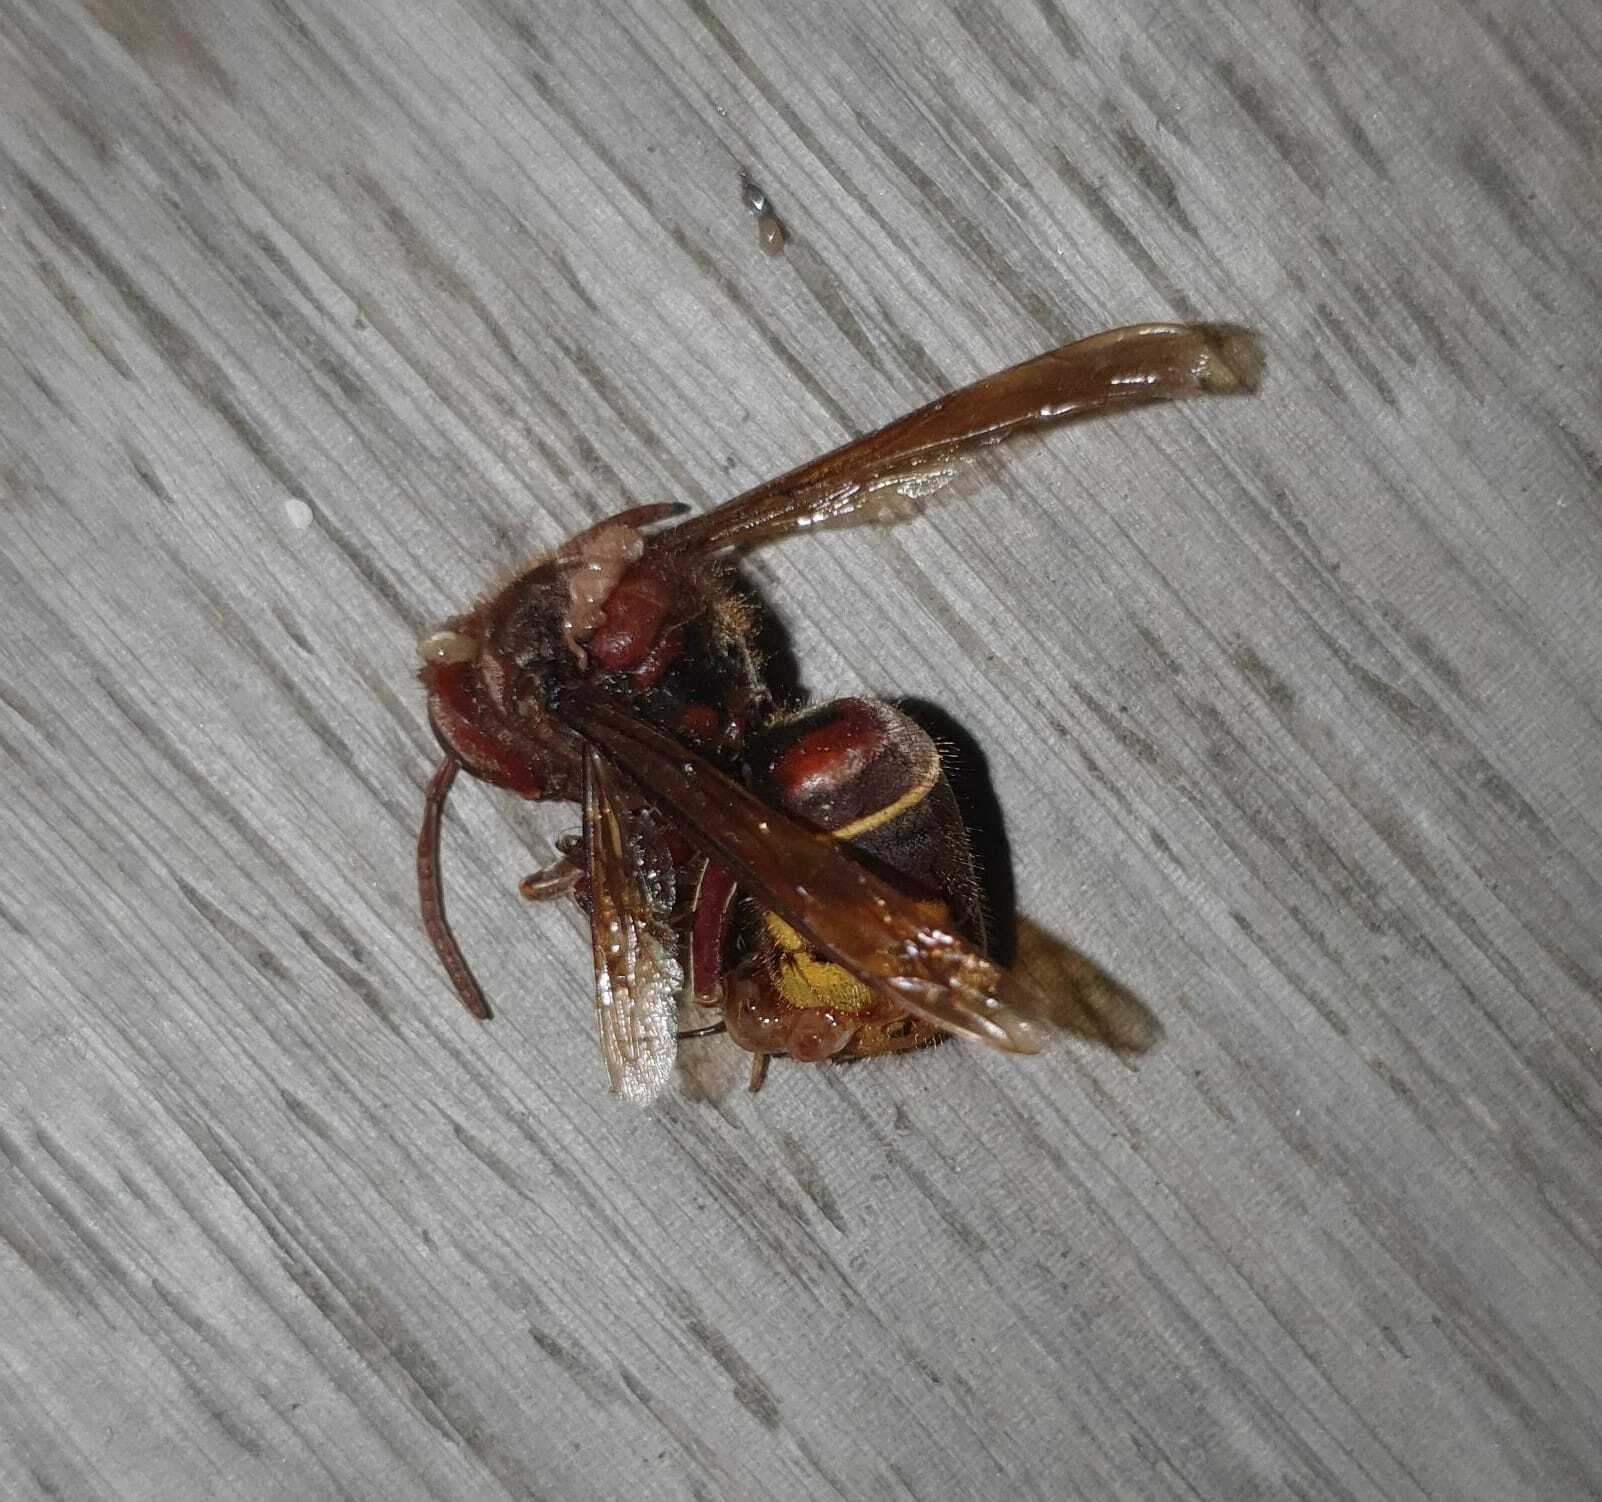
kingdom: Animalia
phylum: Arthropoda
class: Insecta
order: Hymenoptera
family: Vespidae
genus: Vespa
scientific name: Vespa crabro
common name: Hornet
